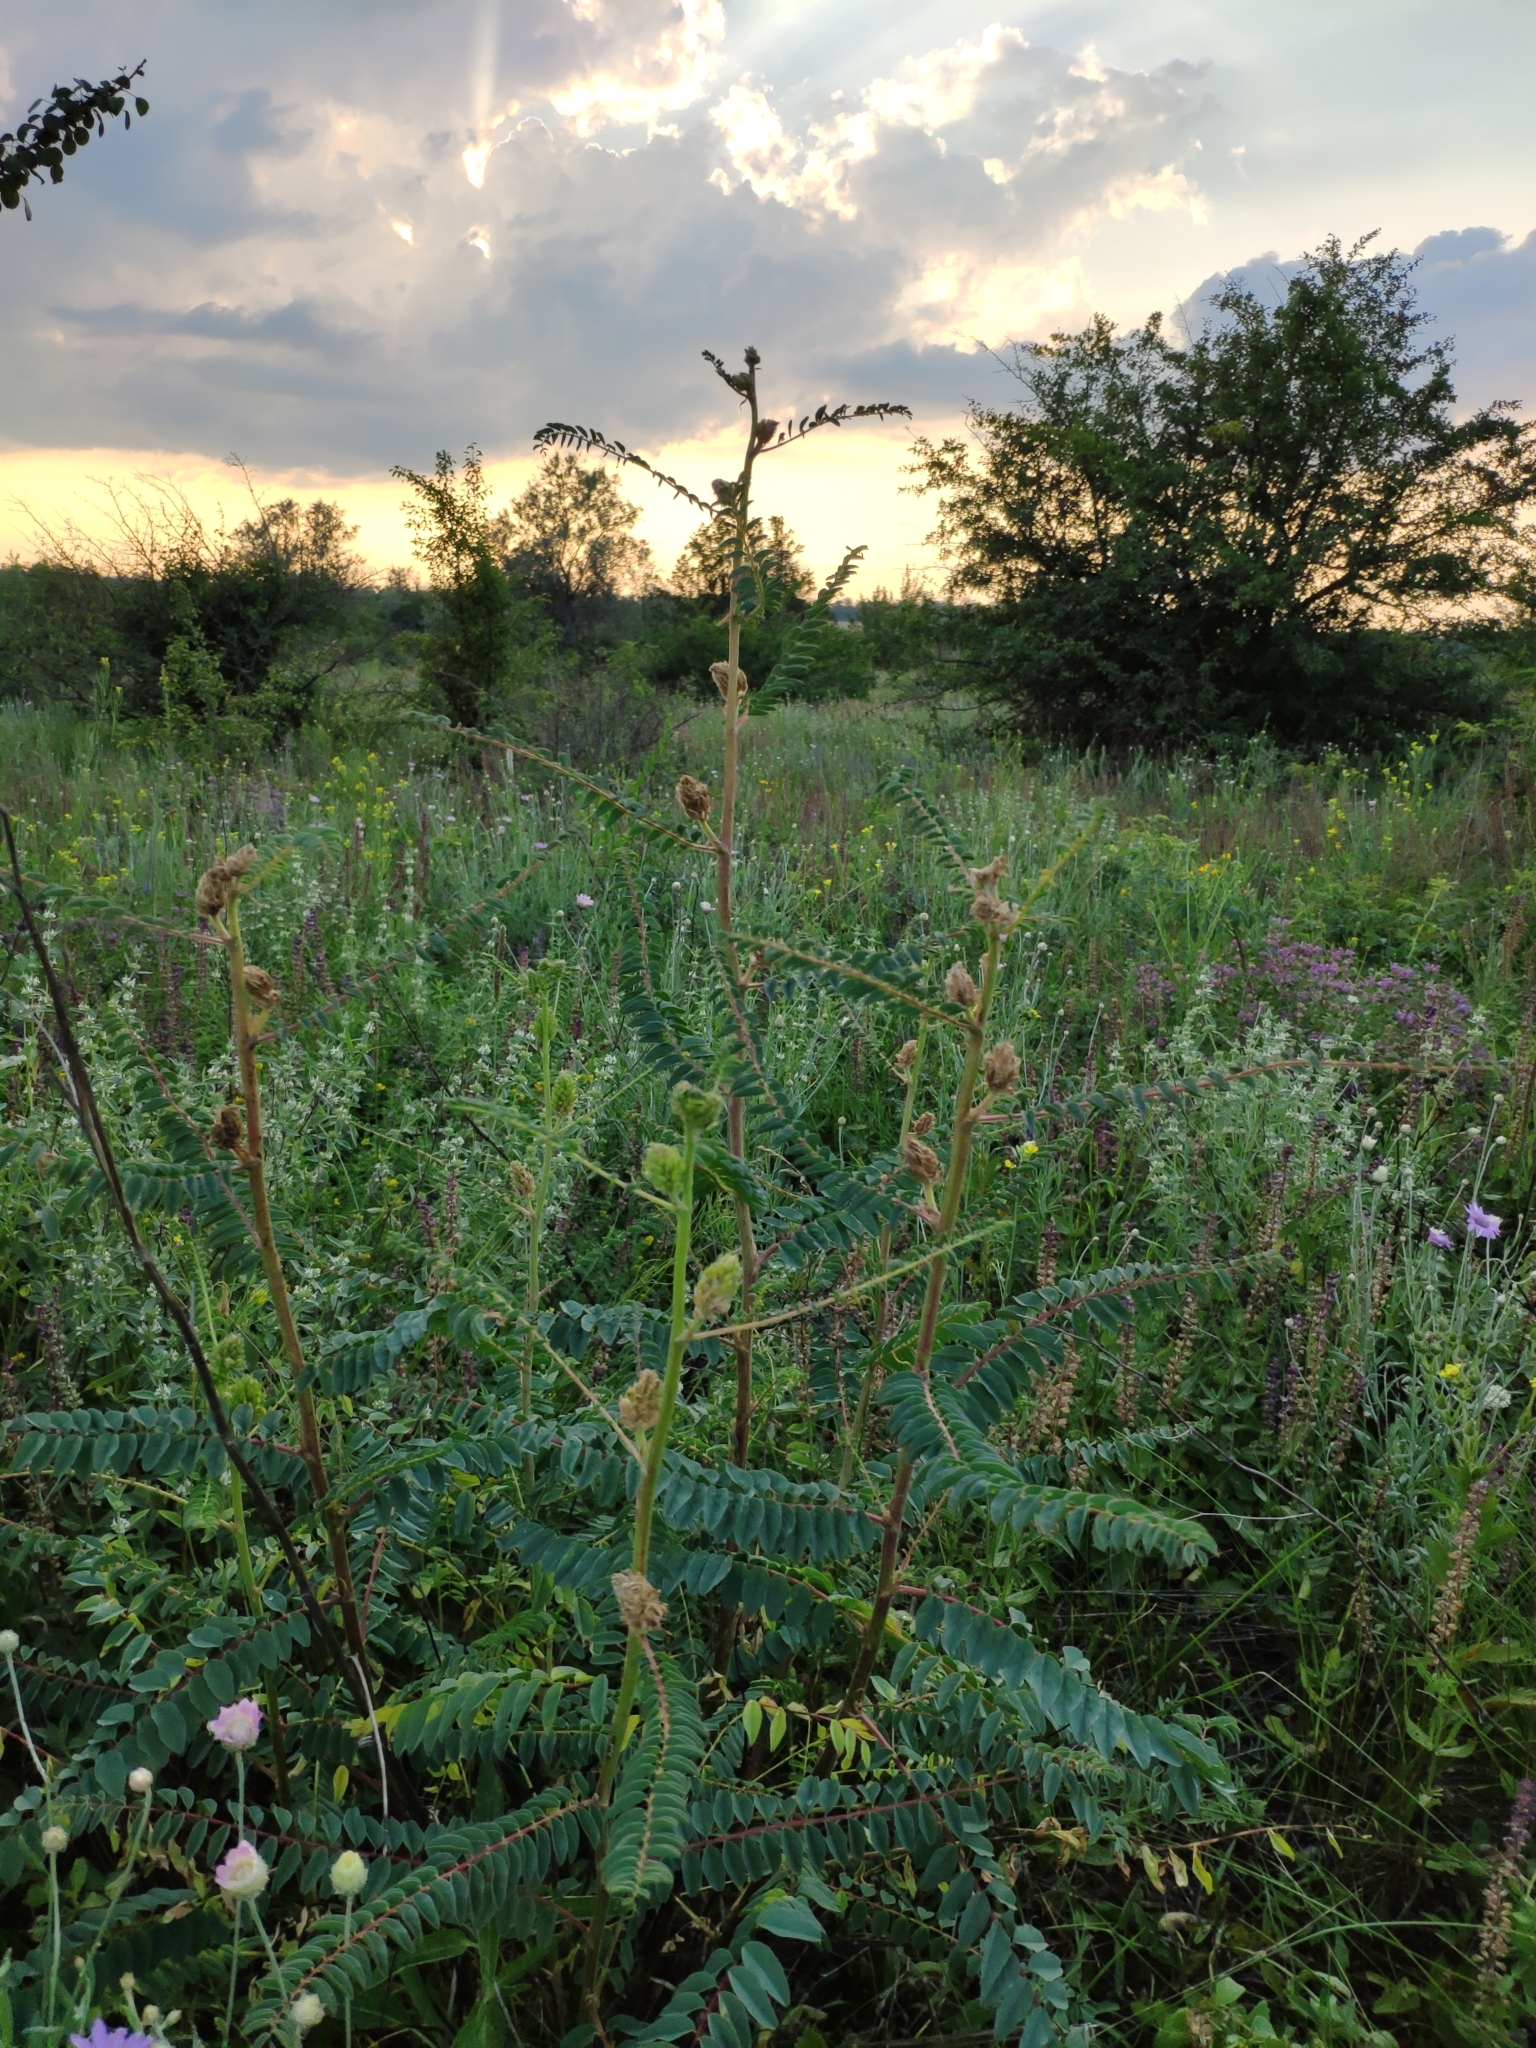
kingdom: Plantae
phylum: Tracheophyta
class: Magnoliopsida
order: Fabales
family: Fabaceae
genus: Astragalus
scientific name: Astragalus ponticus
